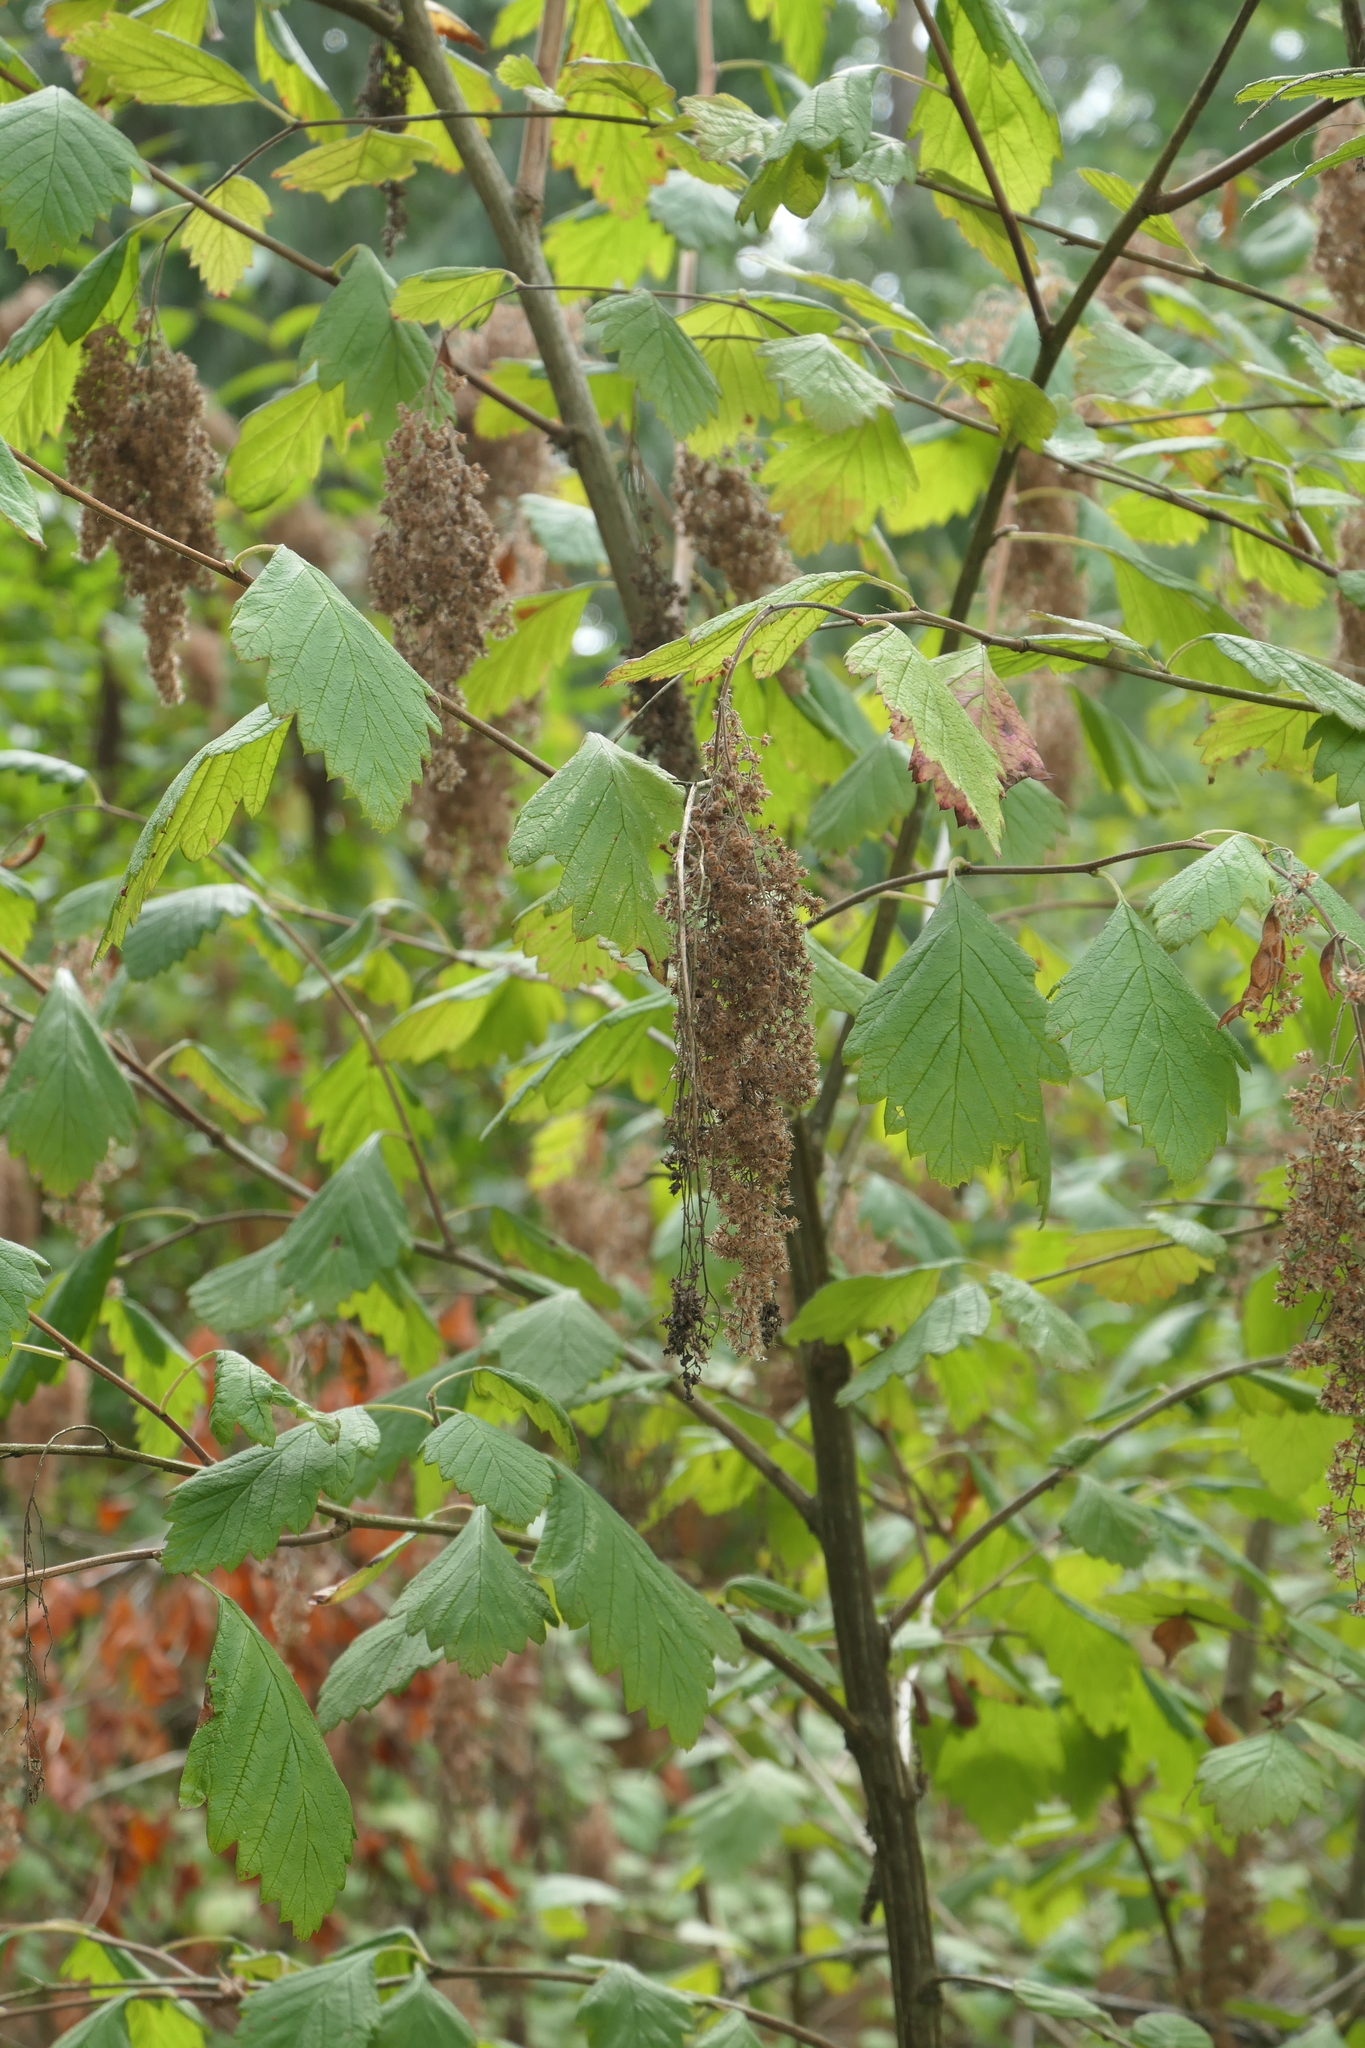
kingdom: Plantae
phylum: Tracheophyta
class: Magnoliopsida
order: Rosales
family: Rosaceae
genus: Holodiscus
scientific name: Holodiscus discolor
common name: Oceanspray
